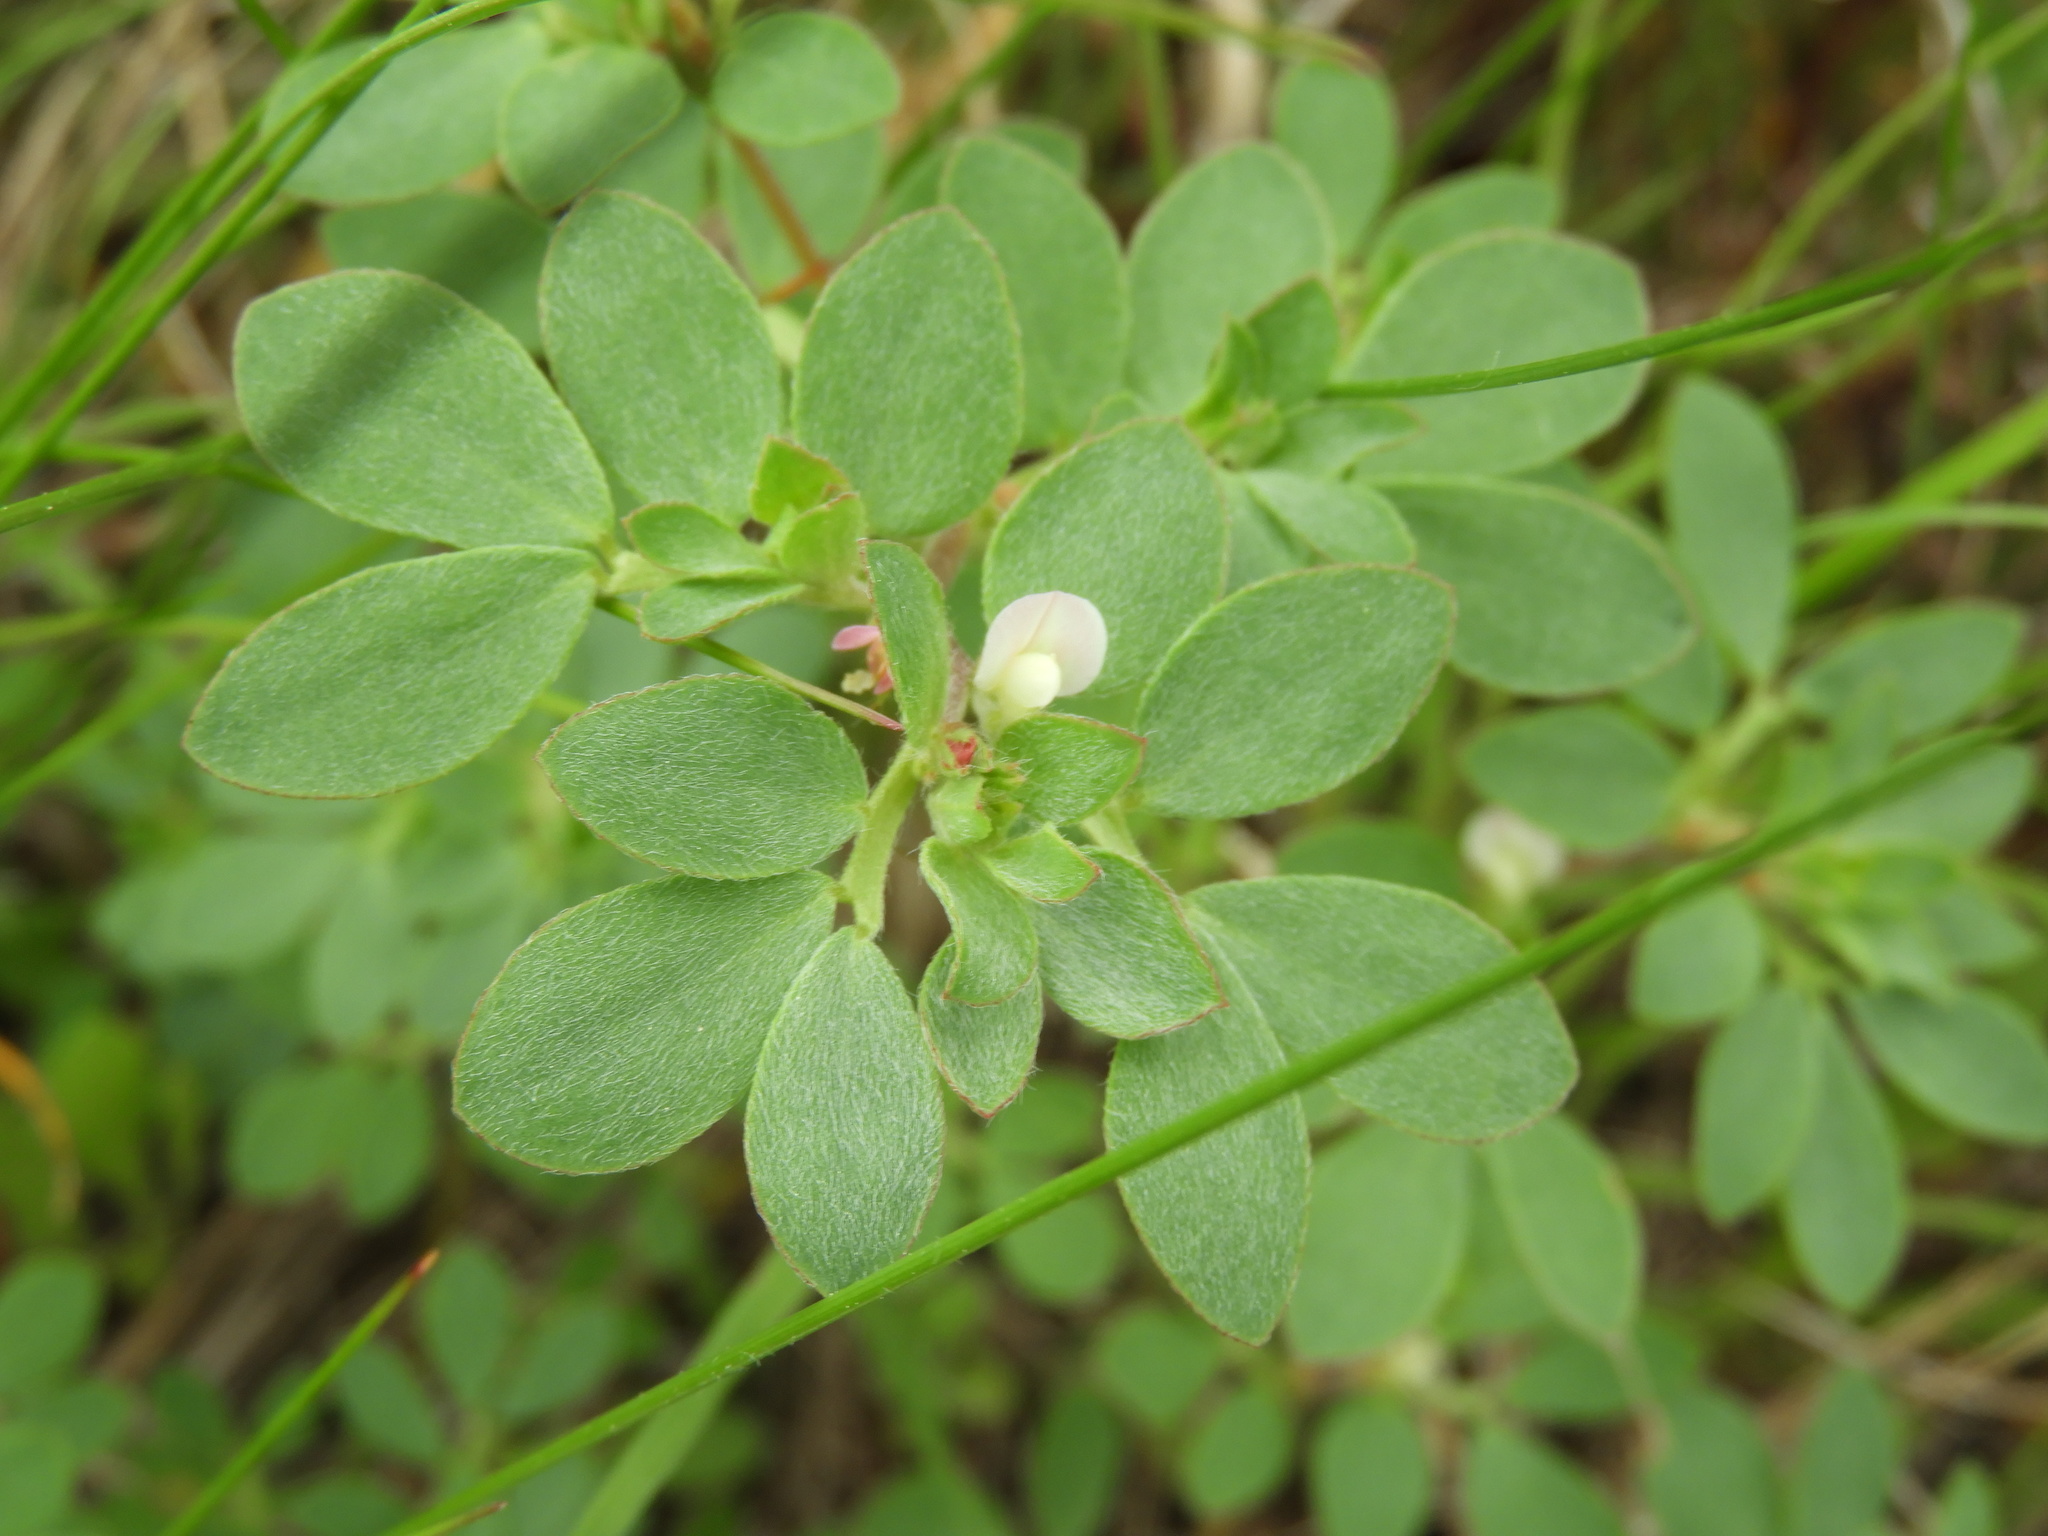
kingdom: Plantae
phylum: Tracheophyta
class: Magnoliopsida
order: Fabales
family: Fabaceae
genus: Acmispon
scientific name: Acmispon parviflorus
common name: Desert deer-vetch
